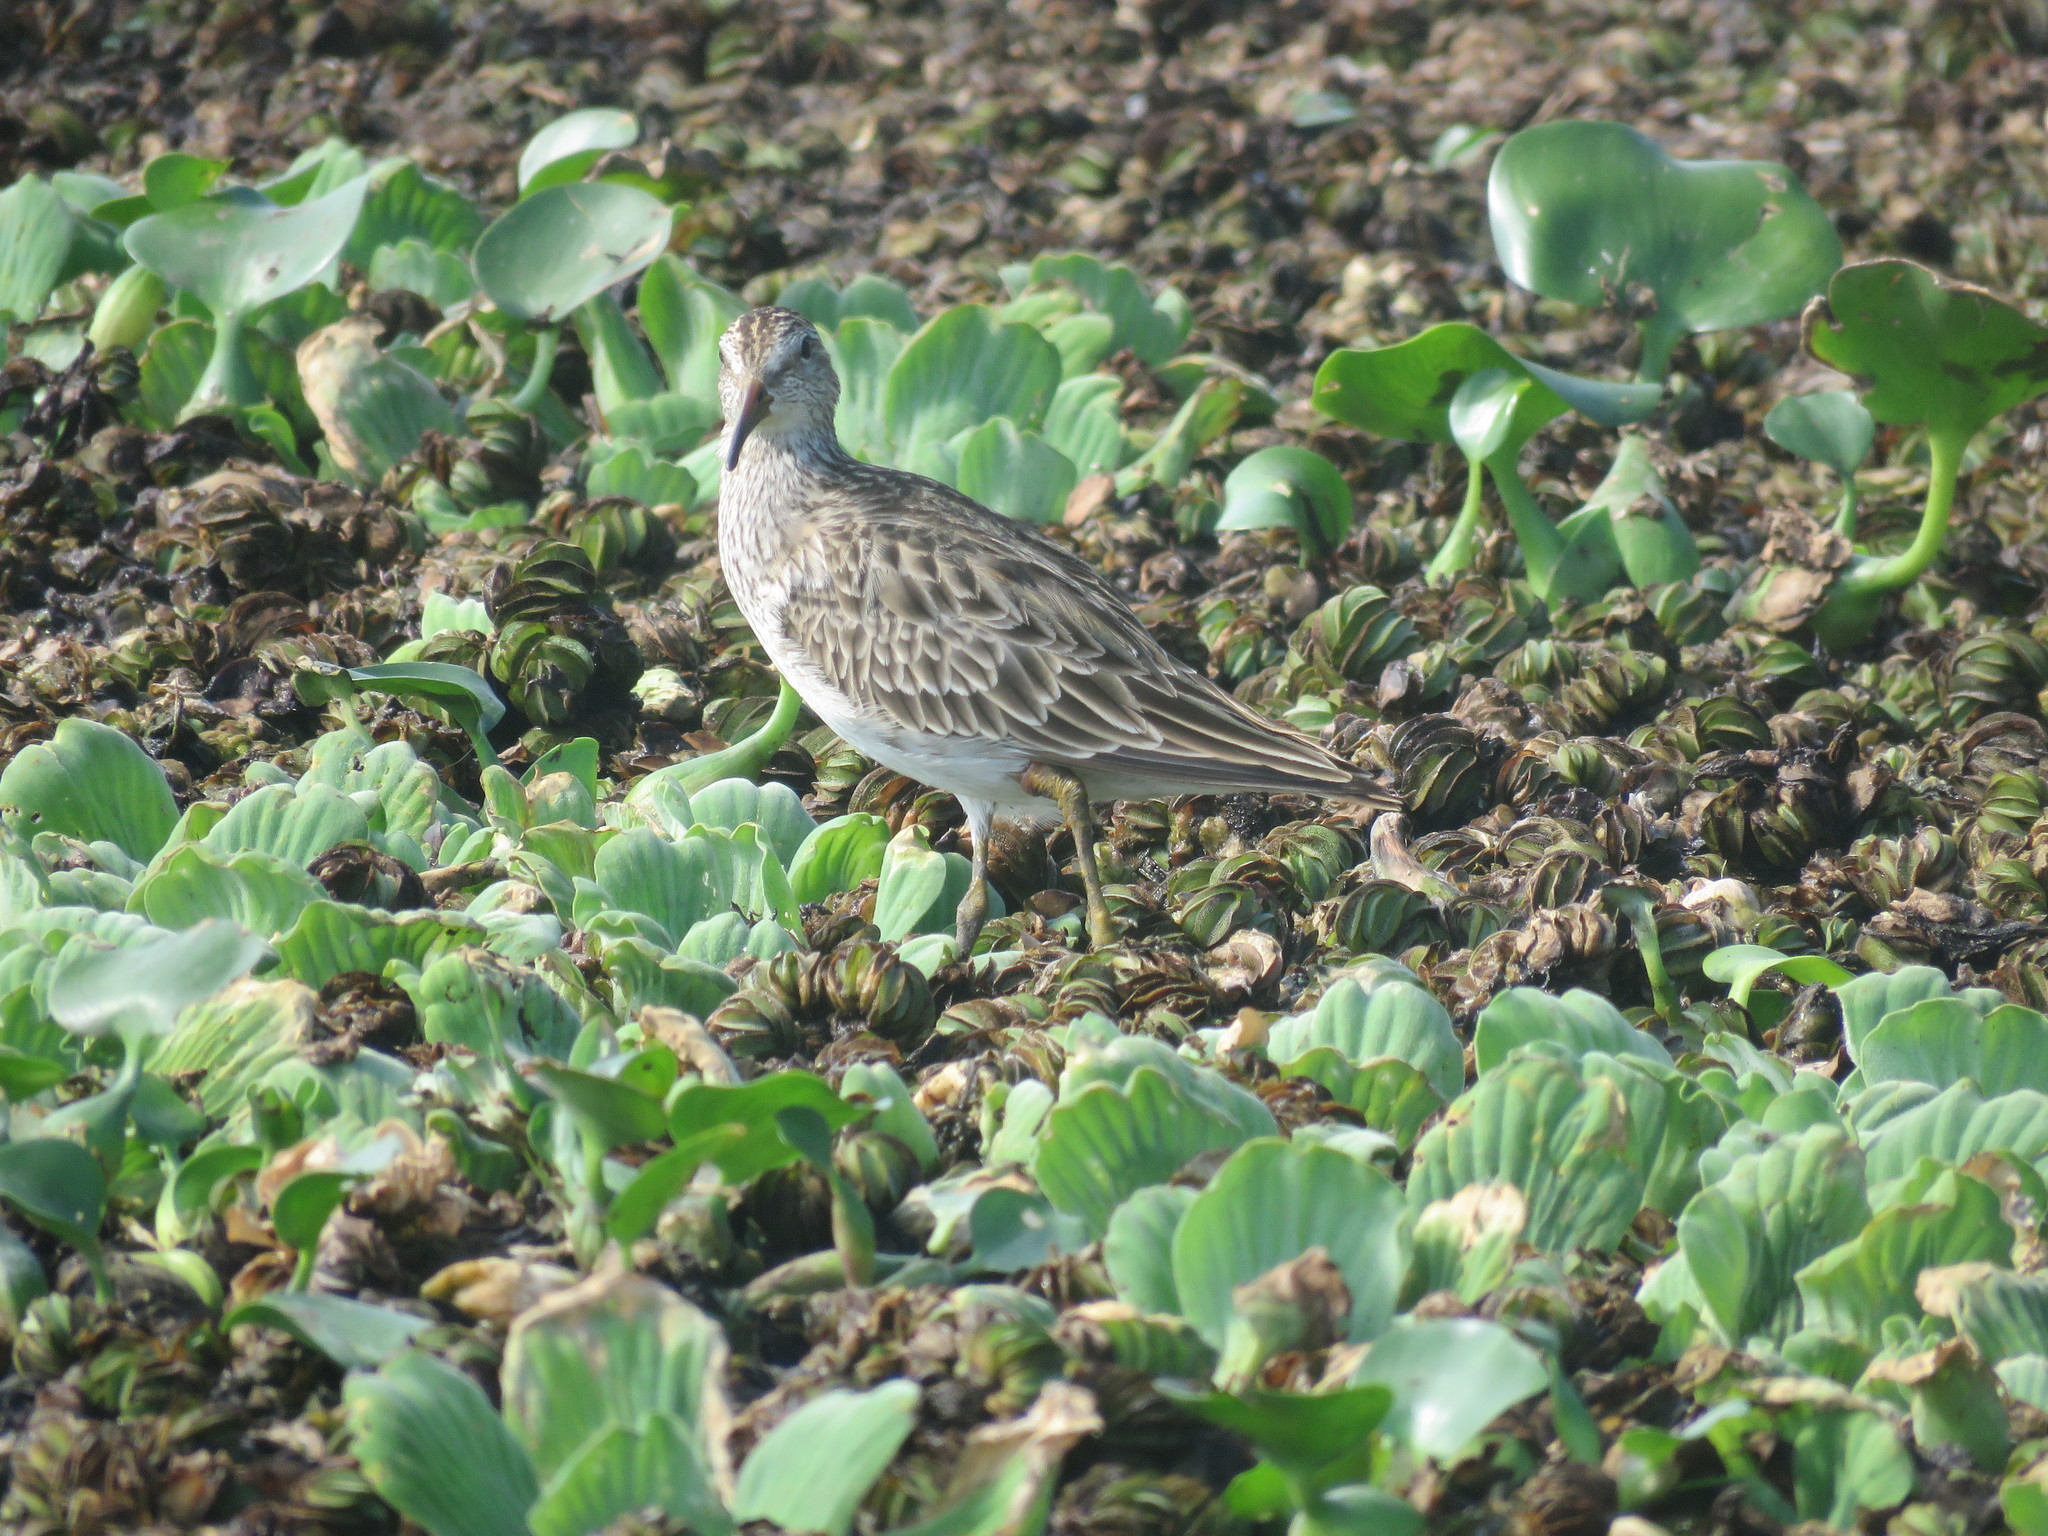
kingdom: Animalia
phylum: Chordata
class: Aves
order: Charadriiformes
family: Scolopacidae
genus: Calidris
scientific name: Calidris melanotos
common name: Pectoral sandpiper
